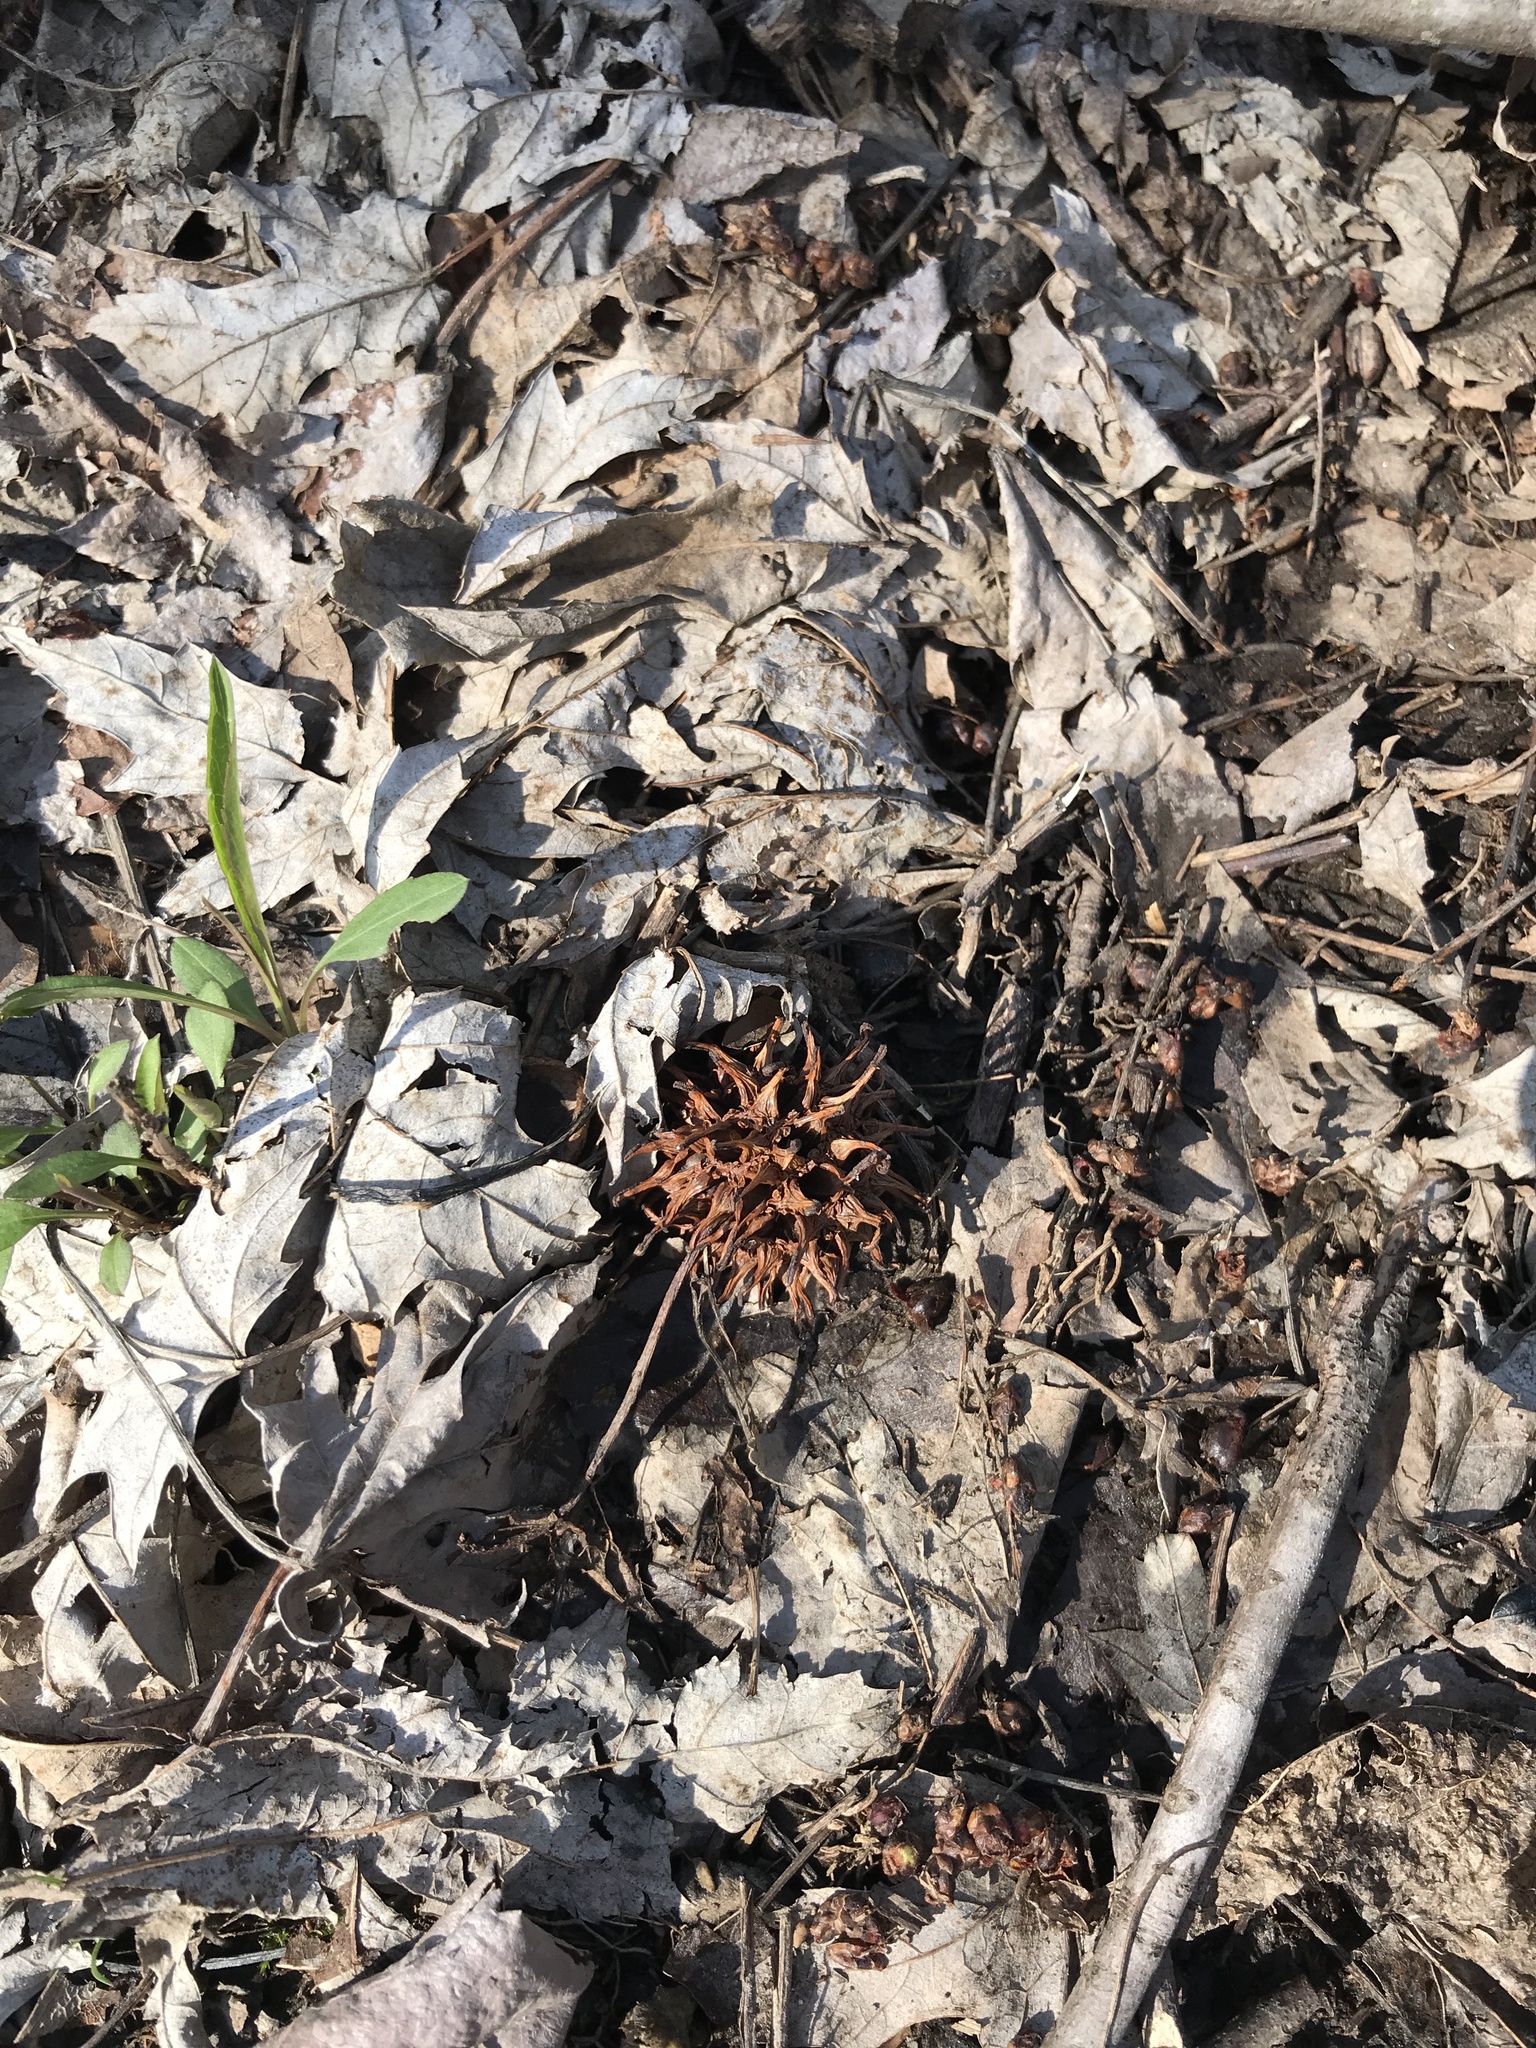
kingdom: Plantae
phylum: Tracheophyta
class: Magnoliopsida
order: Saxifragales
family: Altingiaceae
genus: Liquidambar
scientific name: Liquidambar styraciflua
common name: Sweet gum
